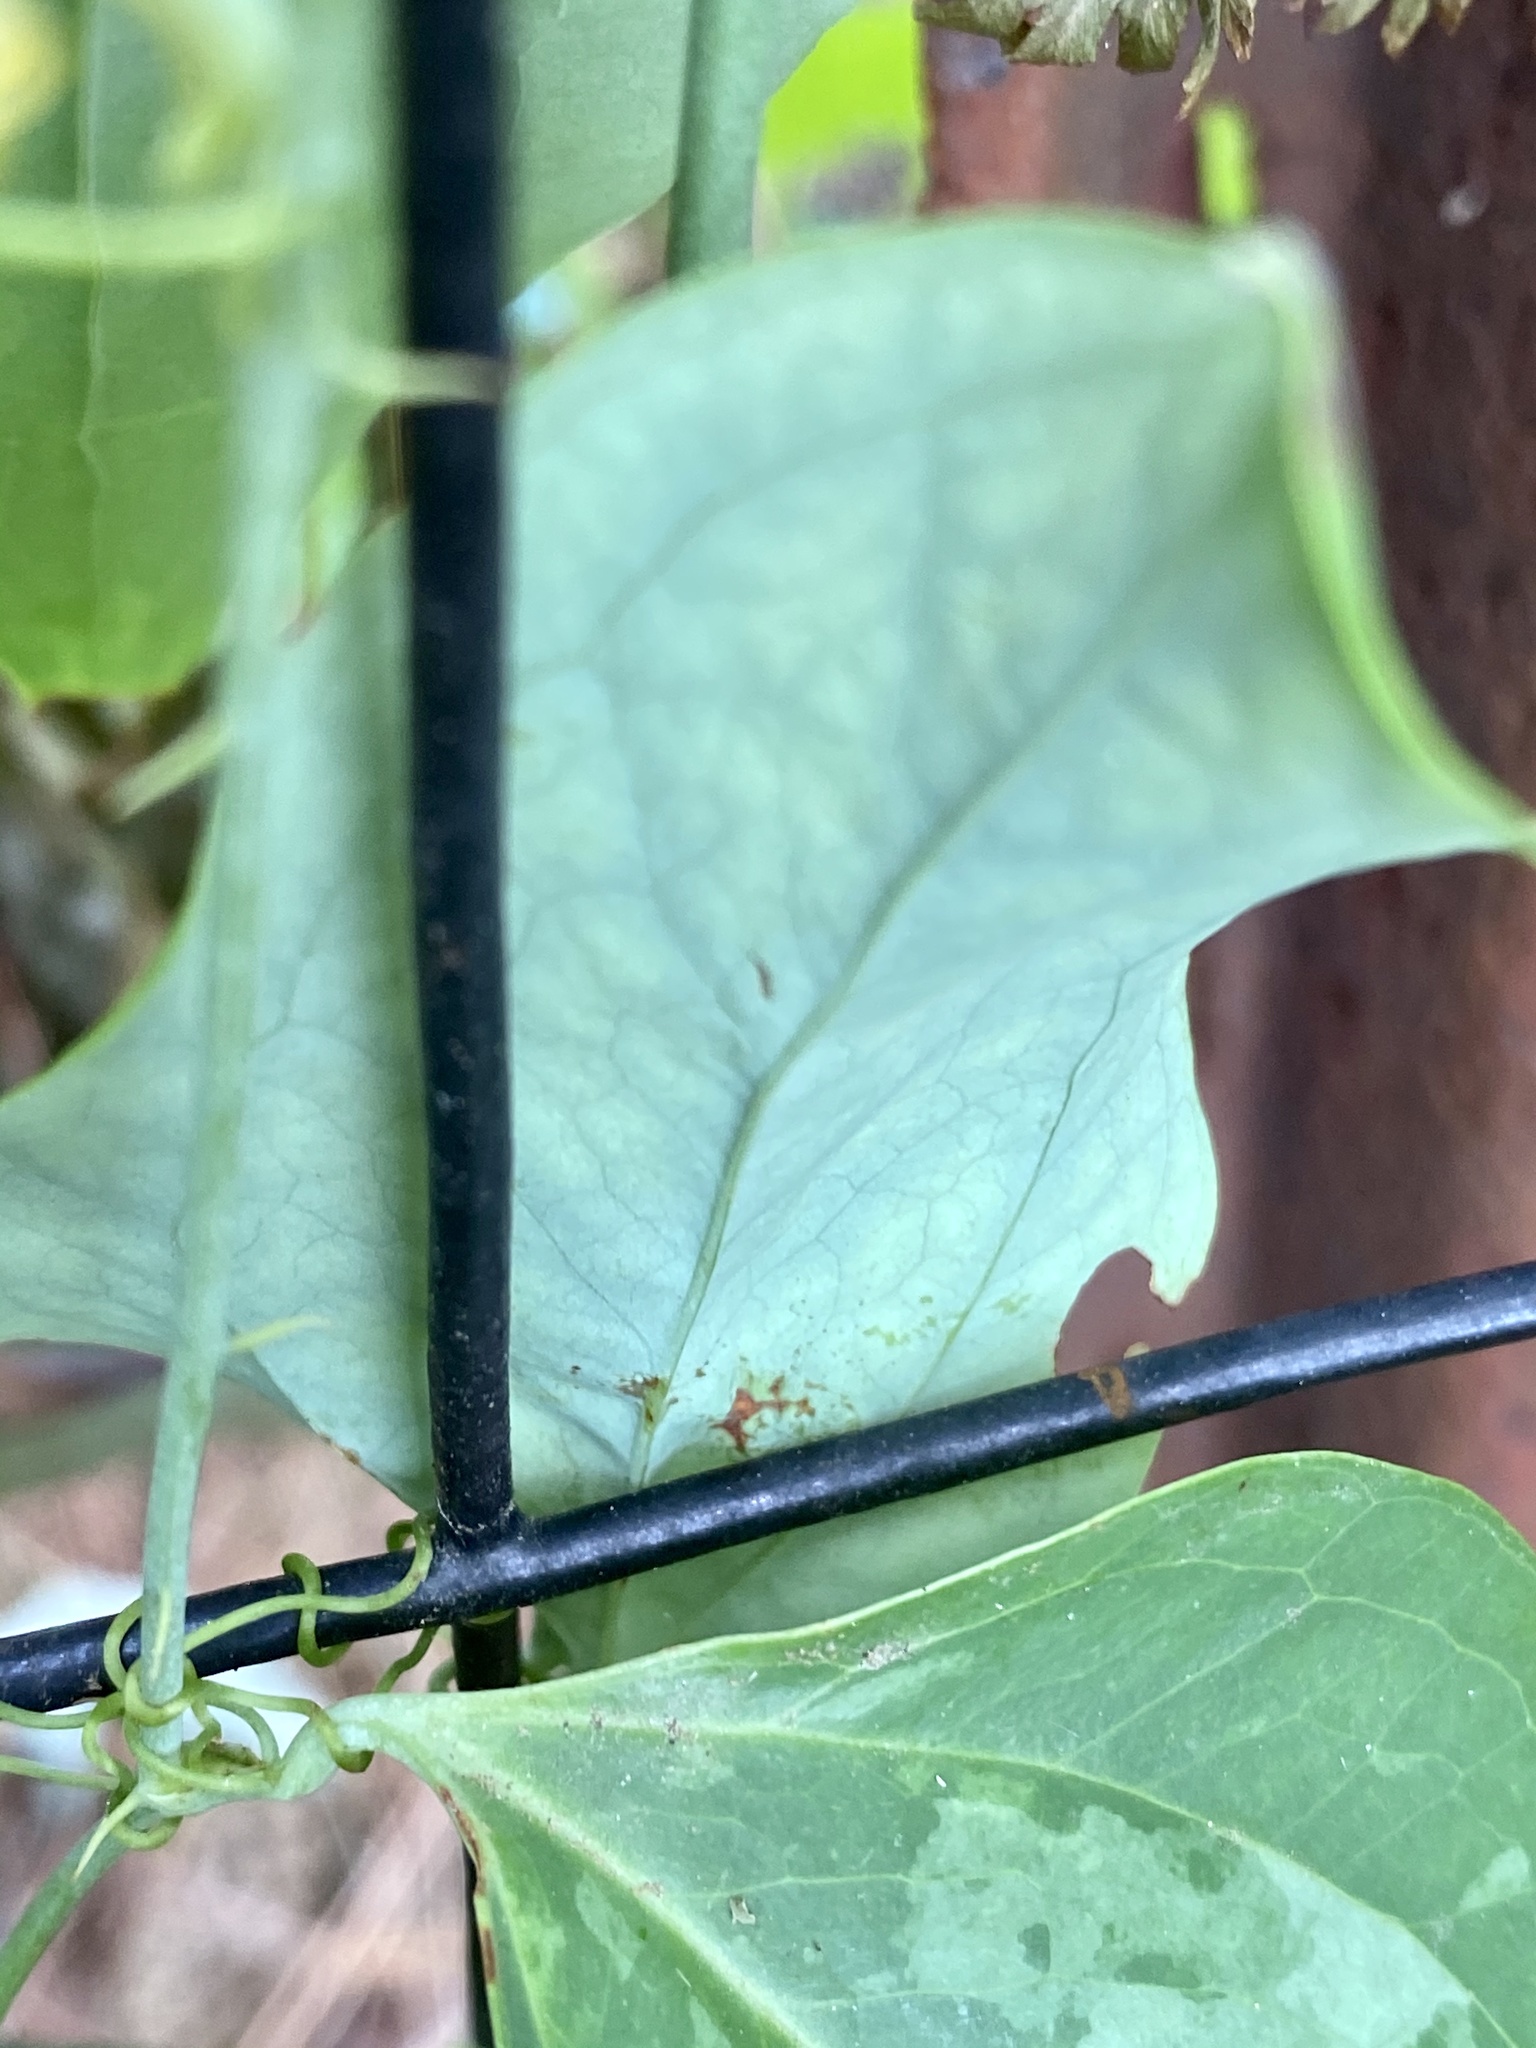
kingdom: Plantae
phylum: Tracheophyta
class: Liliopsida
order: Liliales
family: Smilacaceae
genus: Smilax
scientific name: Smilax glauca
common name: Cat greenbrier
